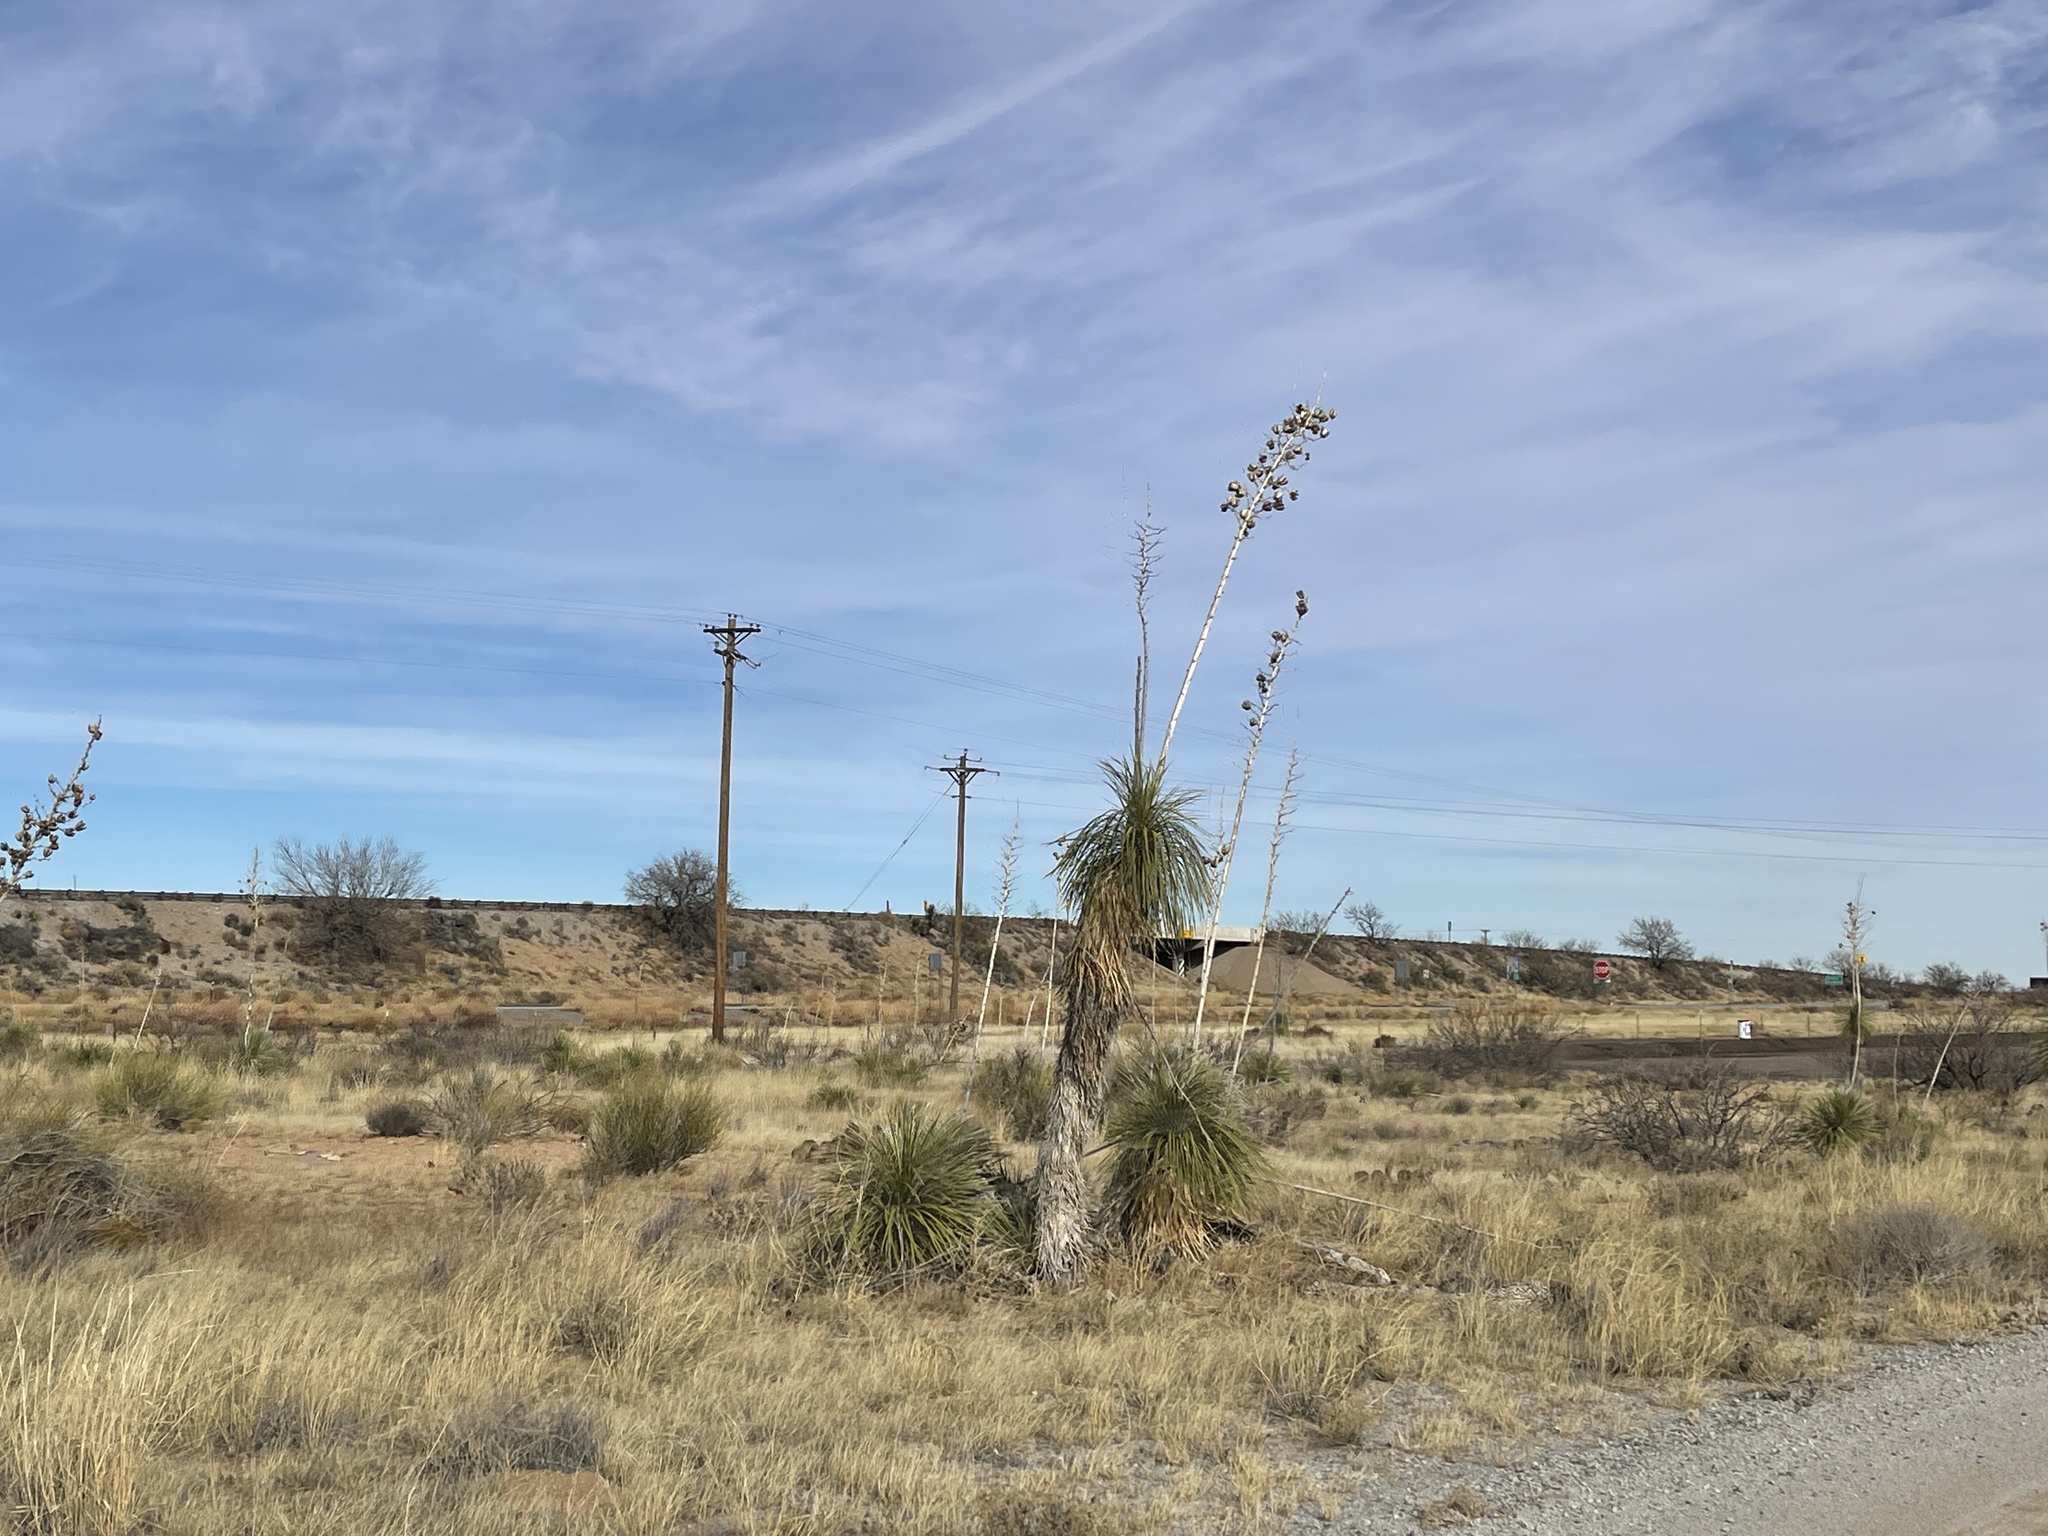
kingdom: Plantae
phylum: Tracheophyta
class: Liliopsida
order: Asparagales
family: Asparagaceae
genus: Yucca
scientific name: Yucca elata
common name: Palmella
